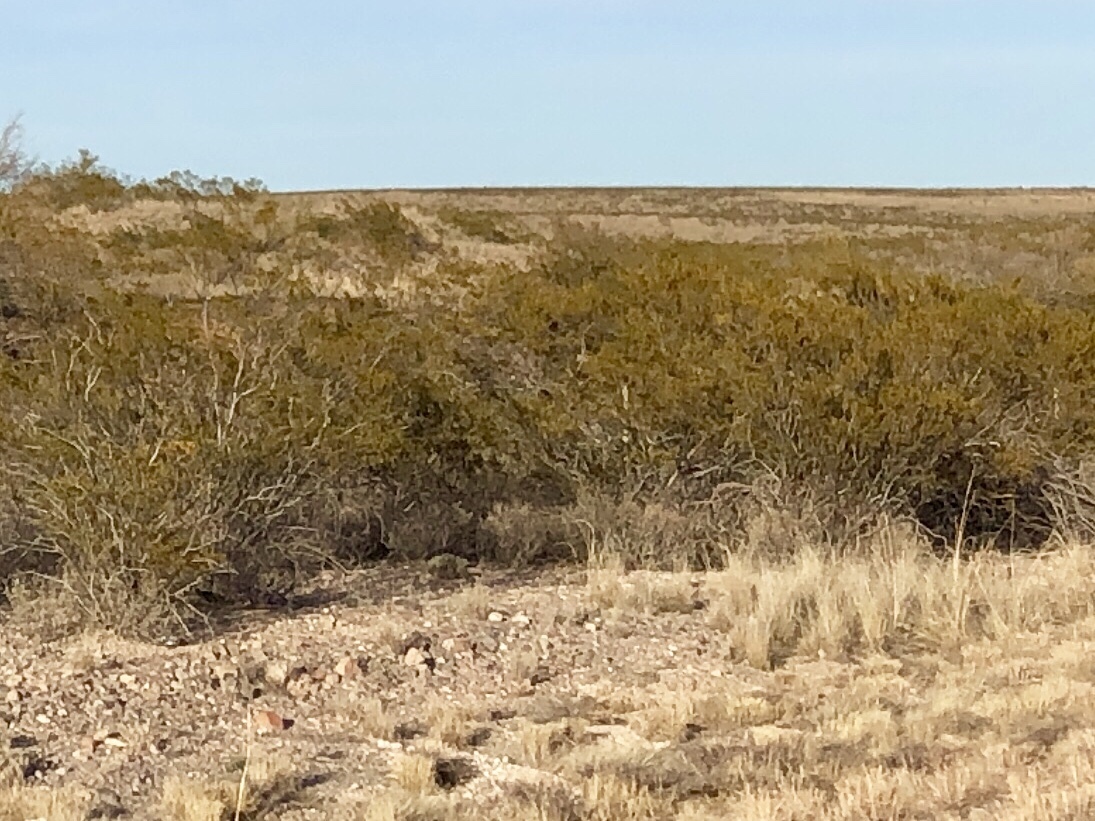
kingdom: Plantae
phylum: Tracheophyta
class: Magnoliopsida
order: Zygophyllales
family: Zygophyllaceae
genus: Larrea
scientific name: Larrea tridentata
